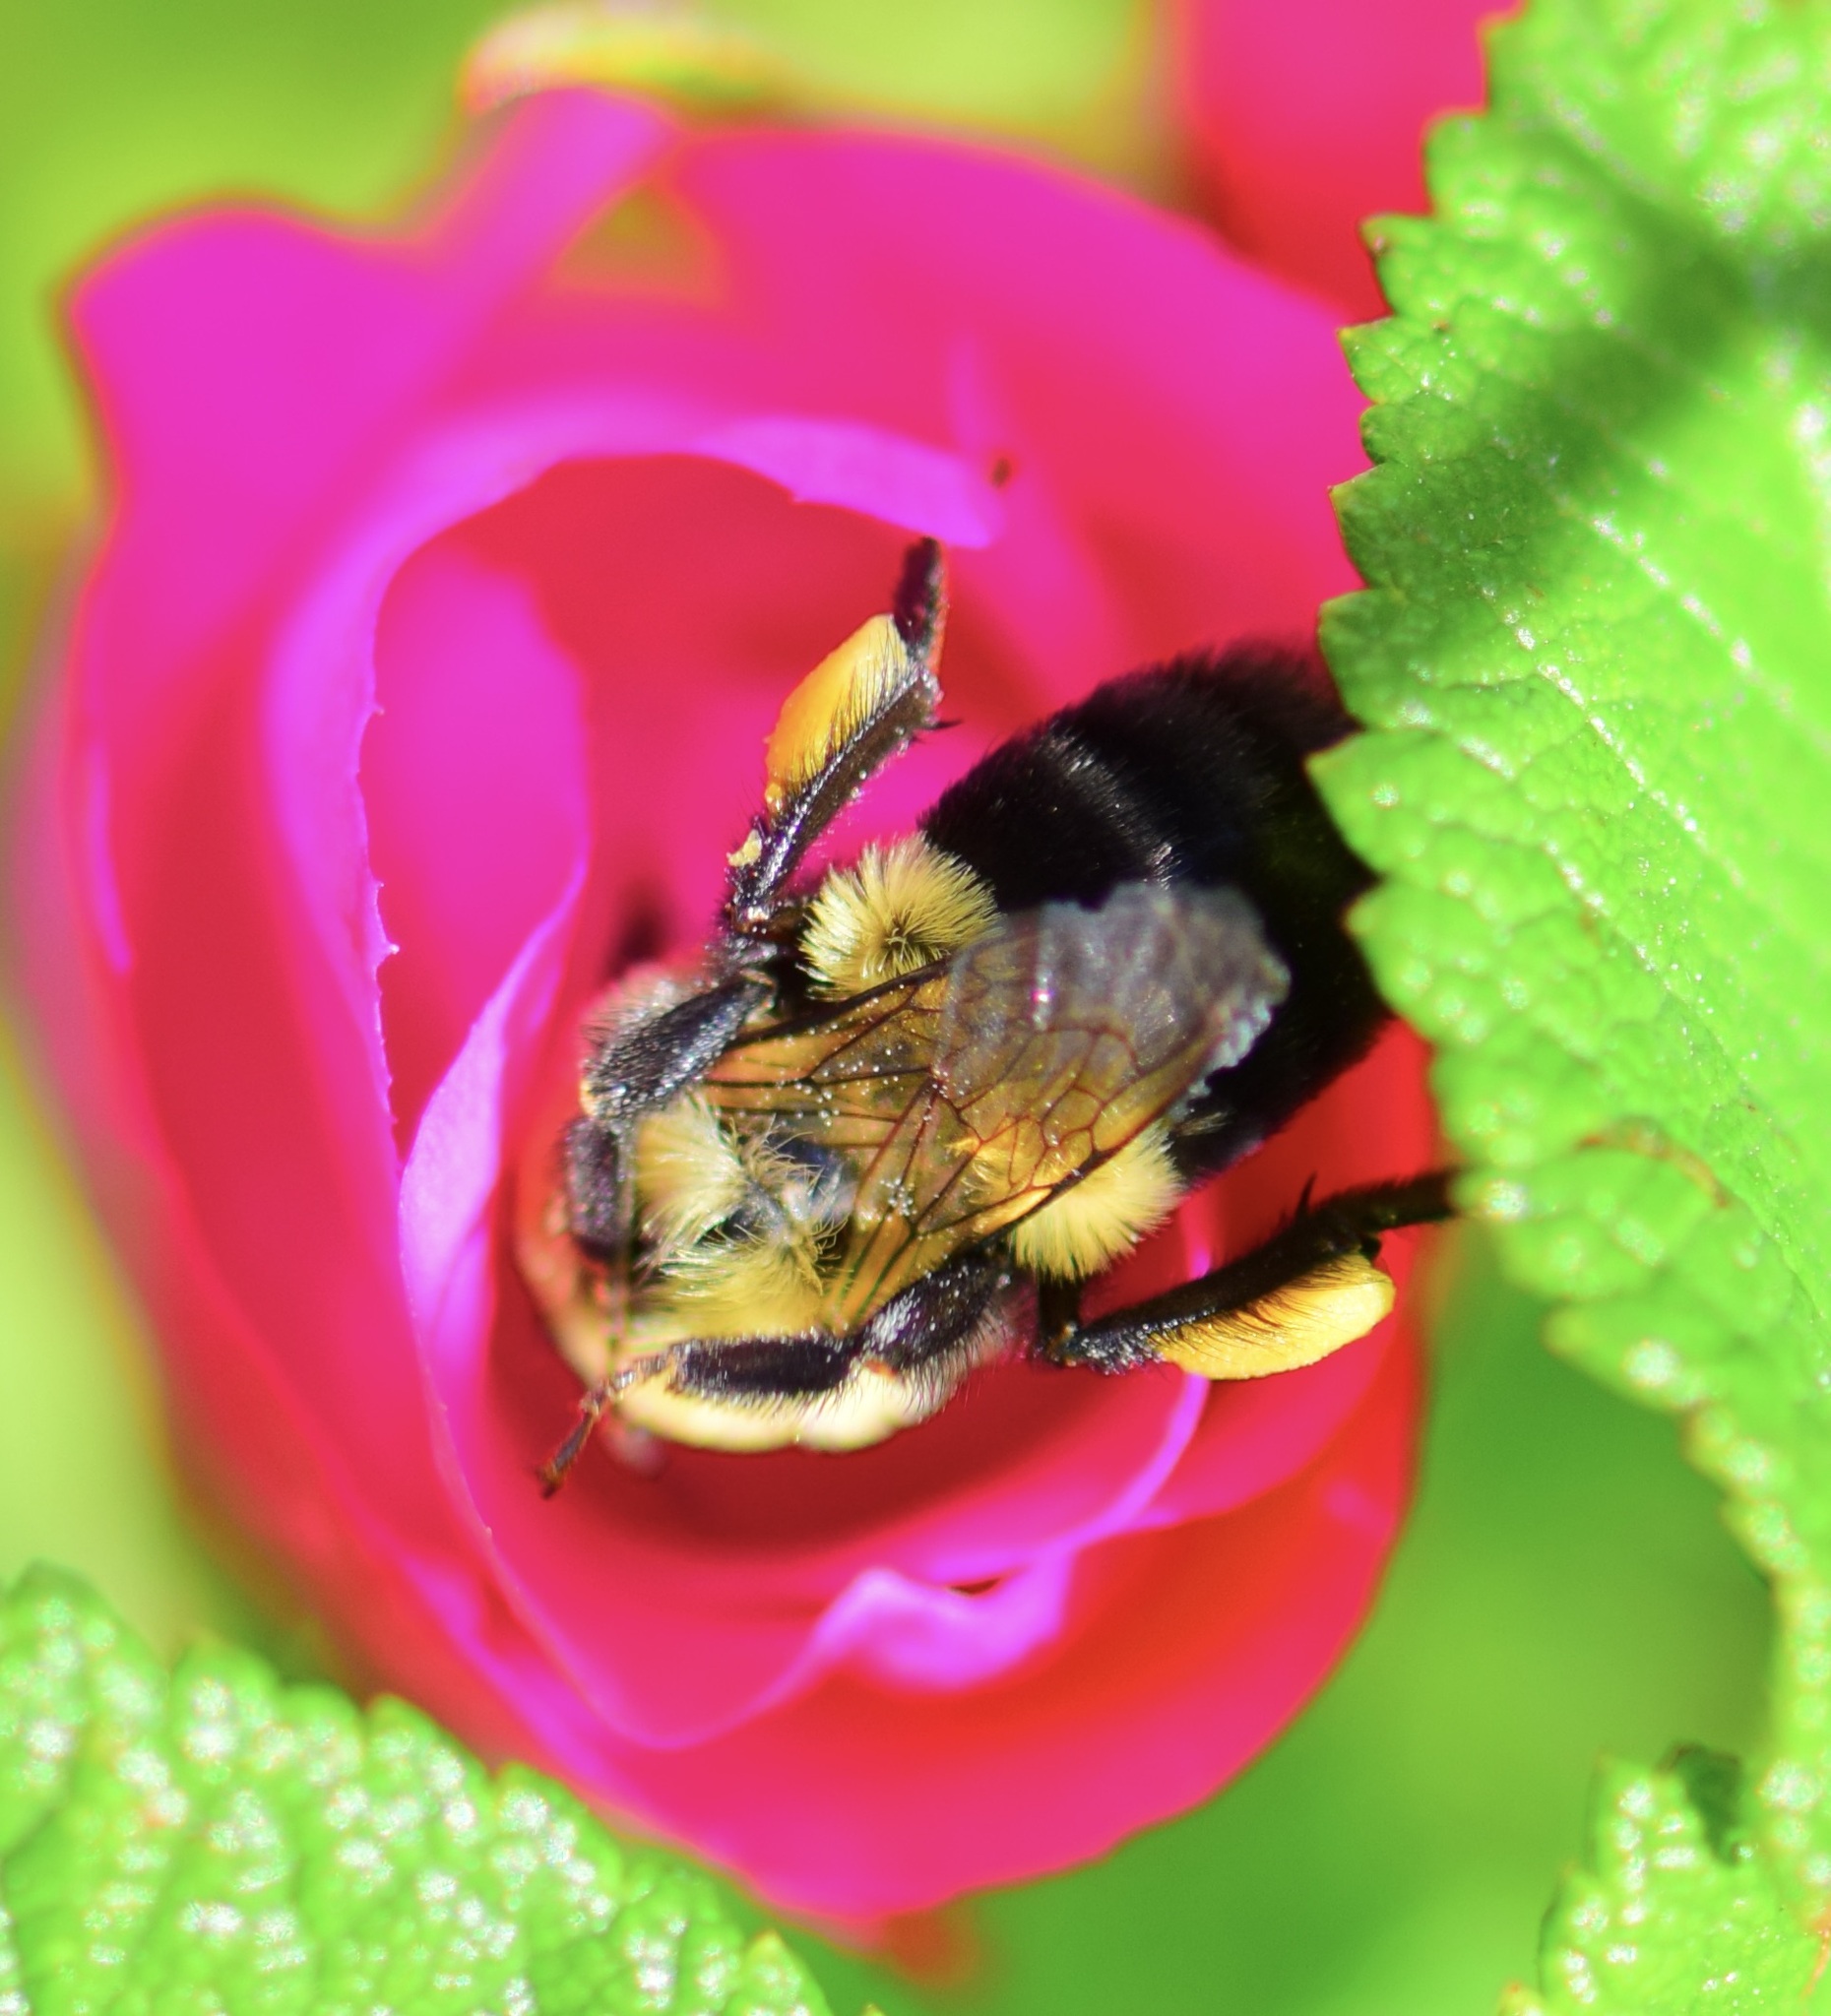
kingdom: Animalia
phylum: Arthropoda
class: Insecta
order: Hymenoptera
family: Apidae
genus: Bombus
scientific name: Bombus impatiens
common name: Common eastern bumble bee
